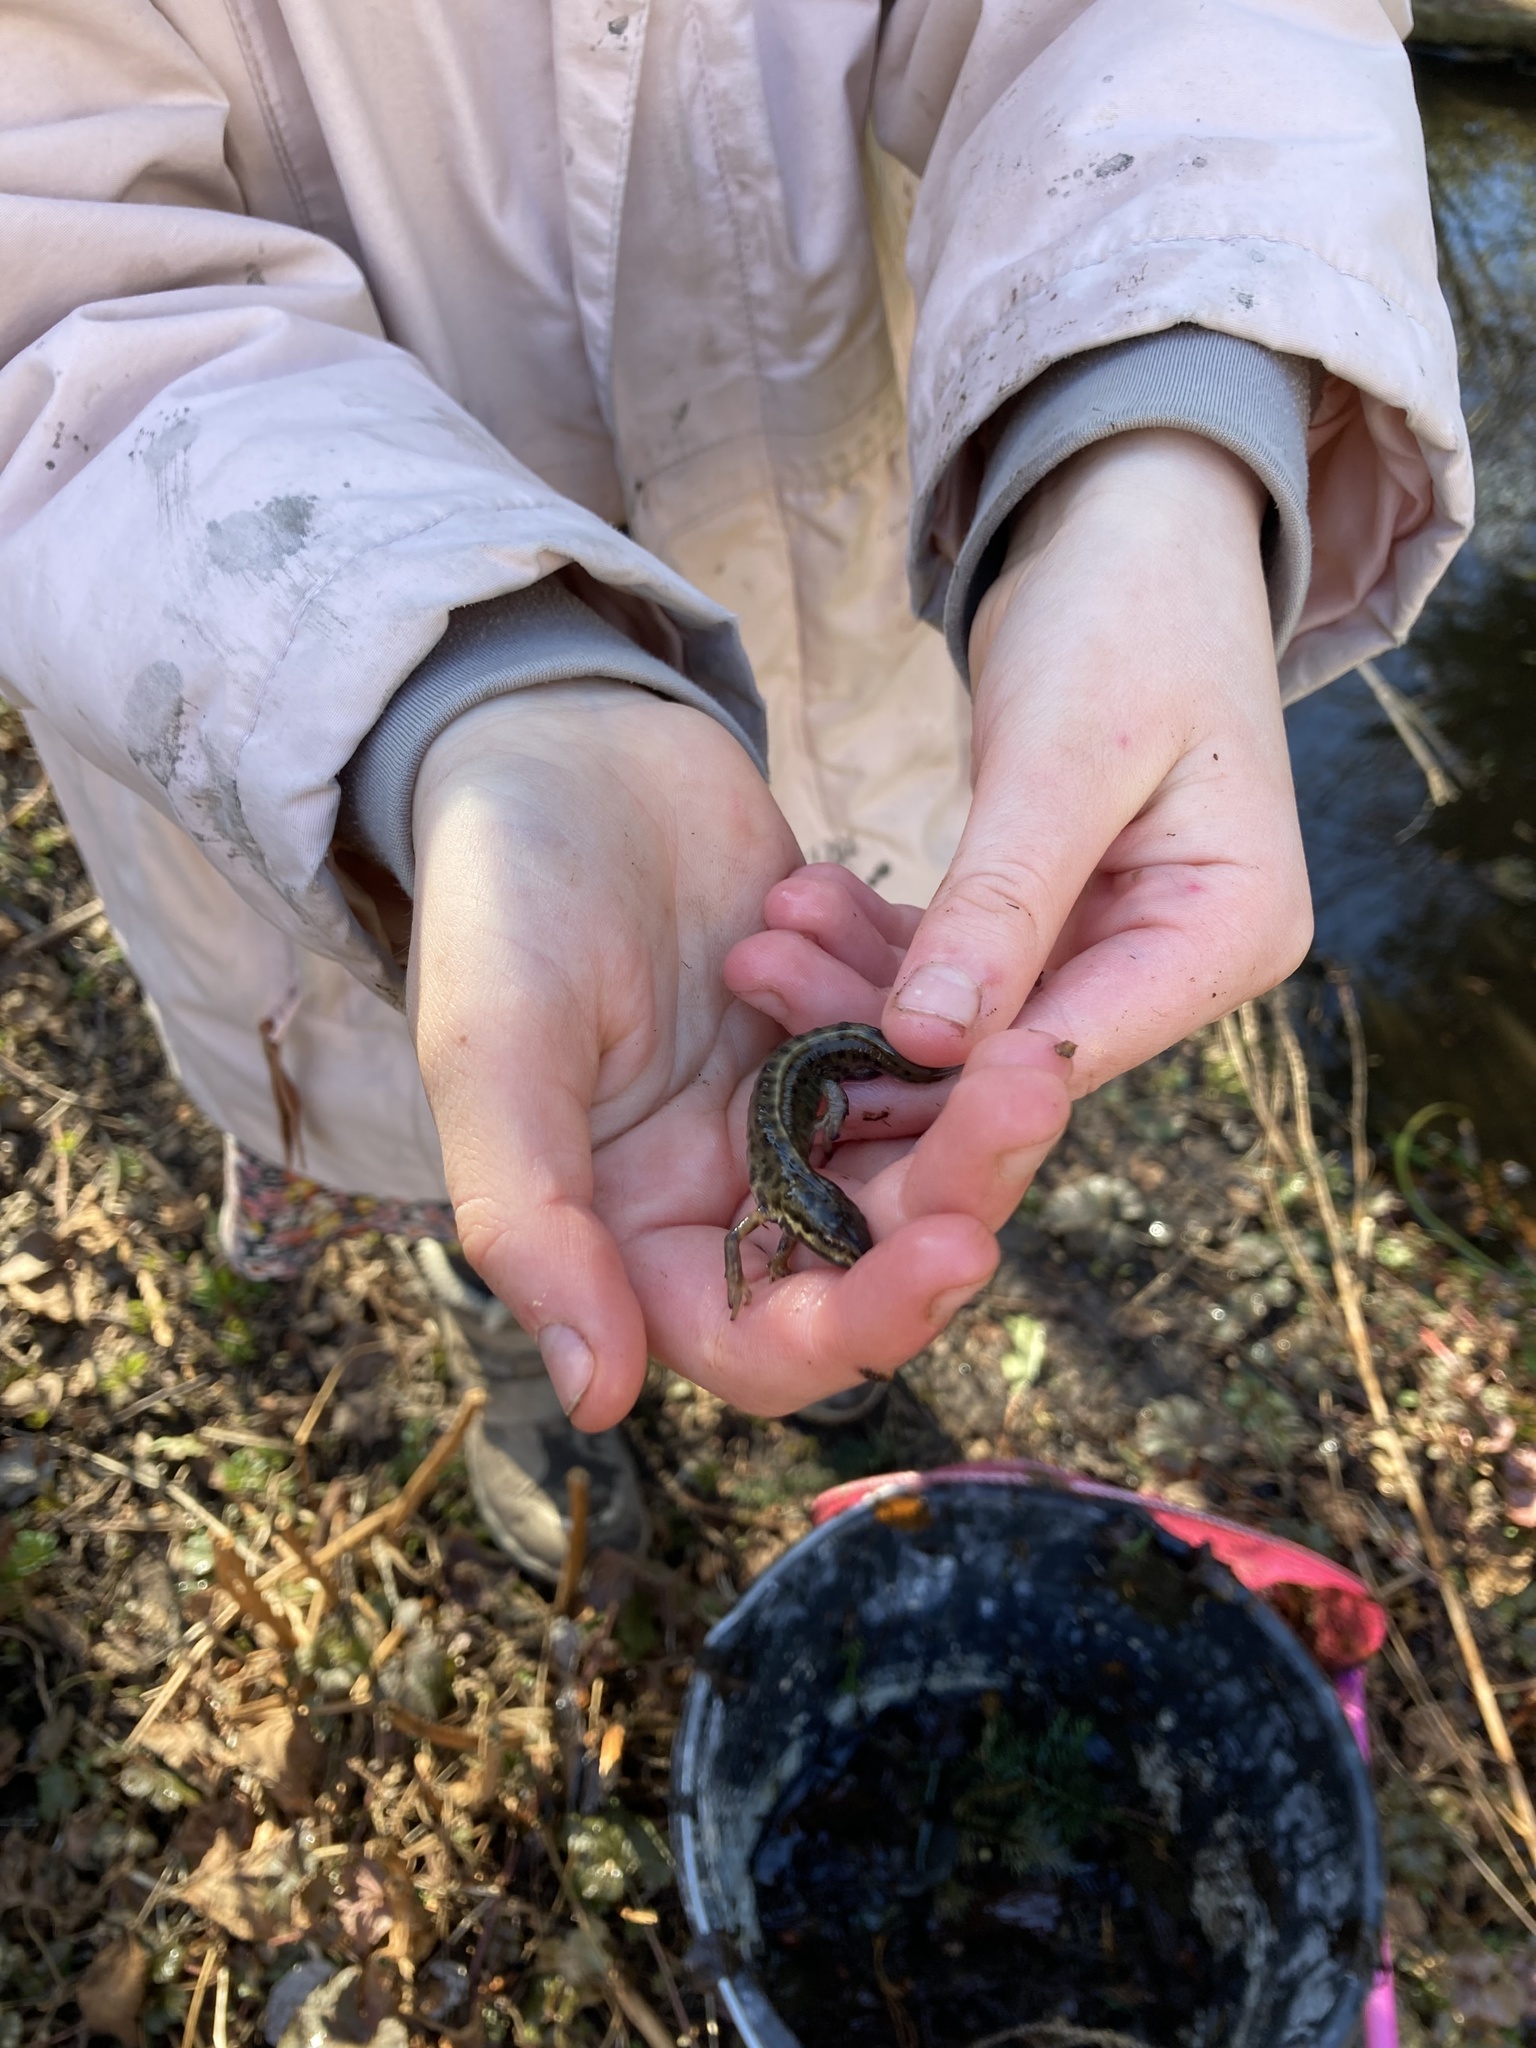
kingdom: Animalia
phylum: Chordata
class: Amphibia
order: Caudata
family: Salamandridae
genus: Lissotriton
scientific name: Lissotriton vulgaris
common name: Smooth newt
